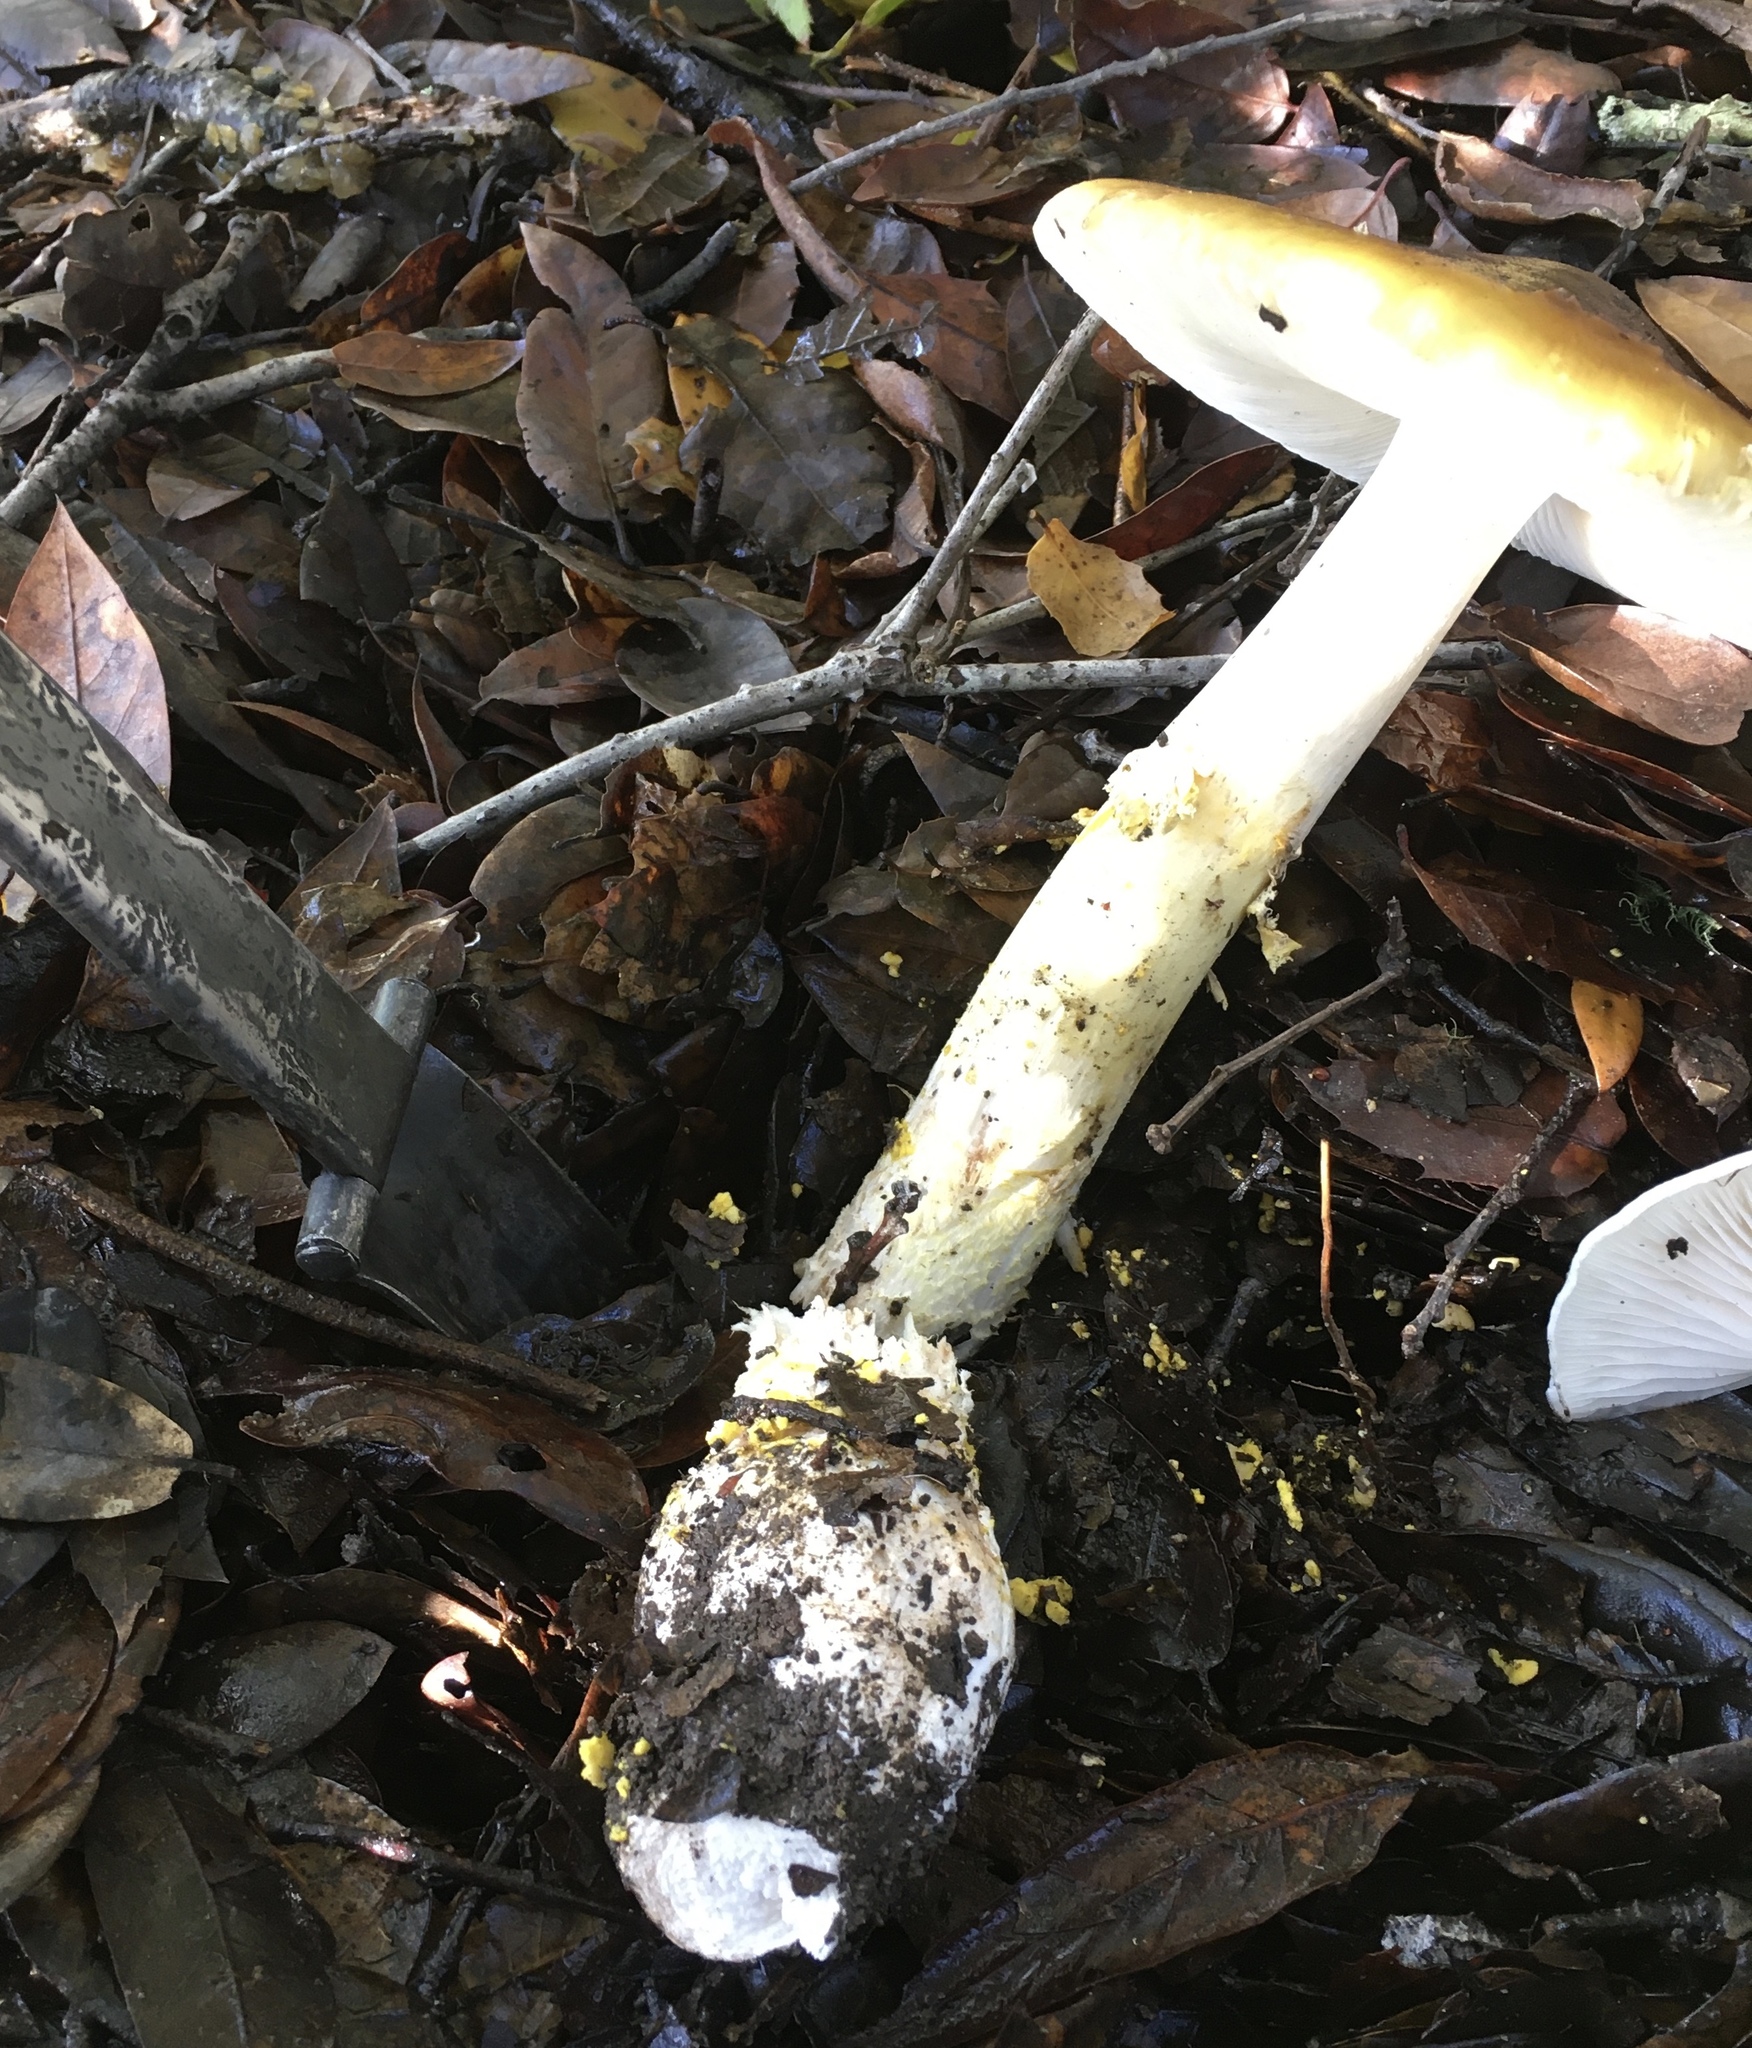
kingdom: Fungi
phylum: Basidiomycota
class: Agaricomycetes
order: Agaricales
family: Amanitaceae
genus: Amanita
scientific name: Amanita augusta
